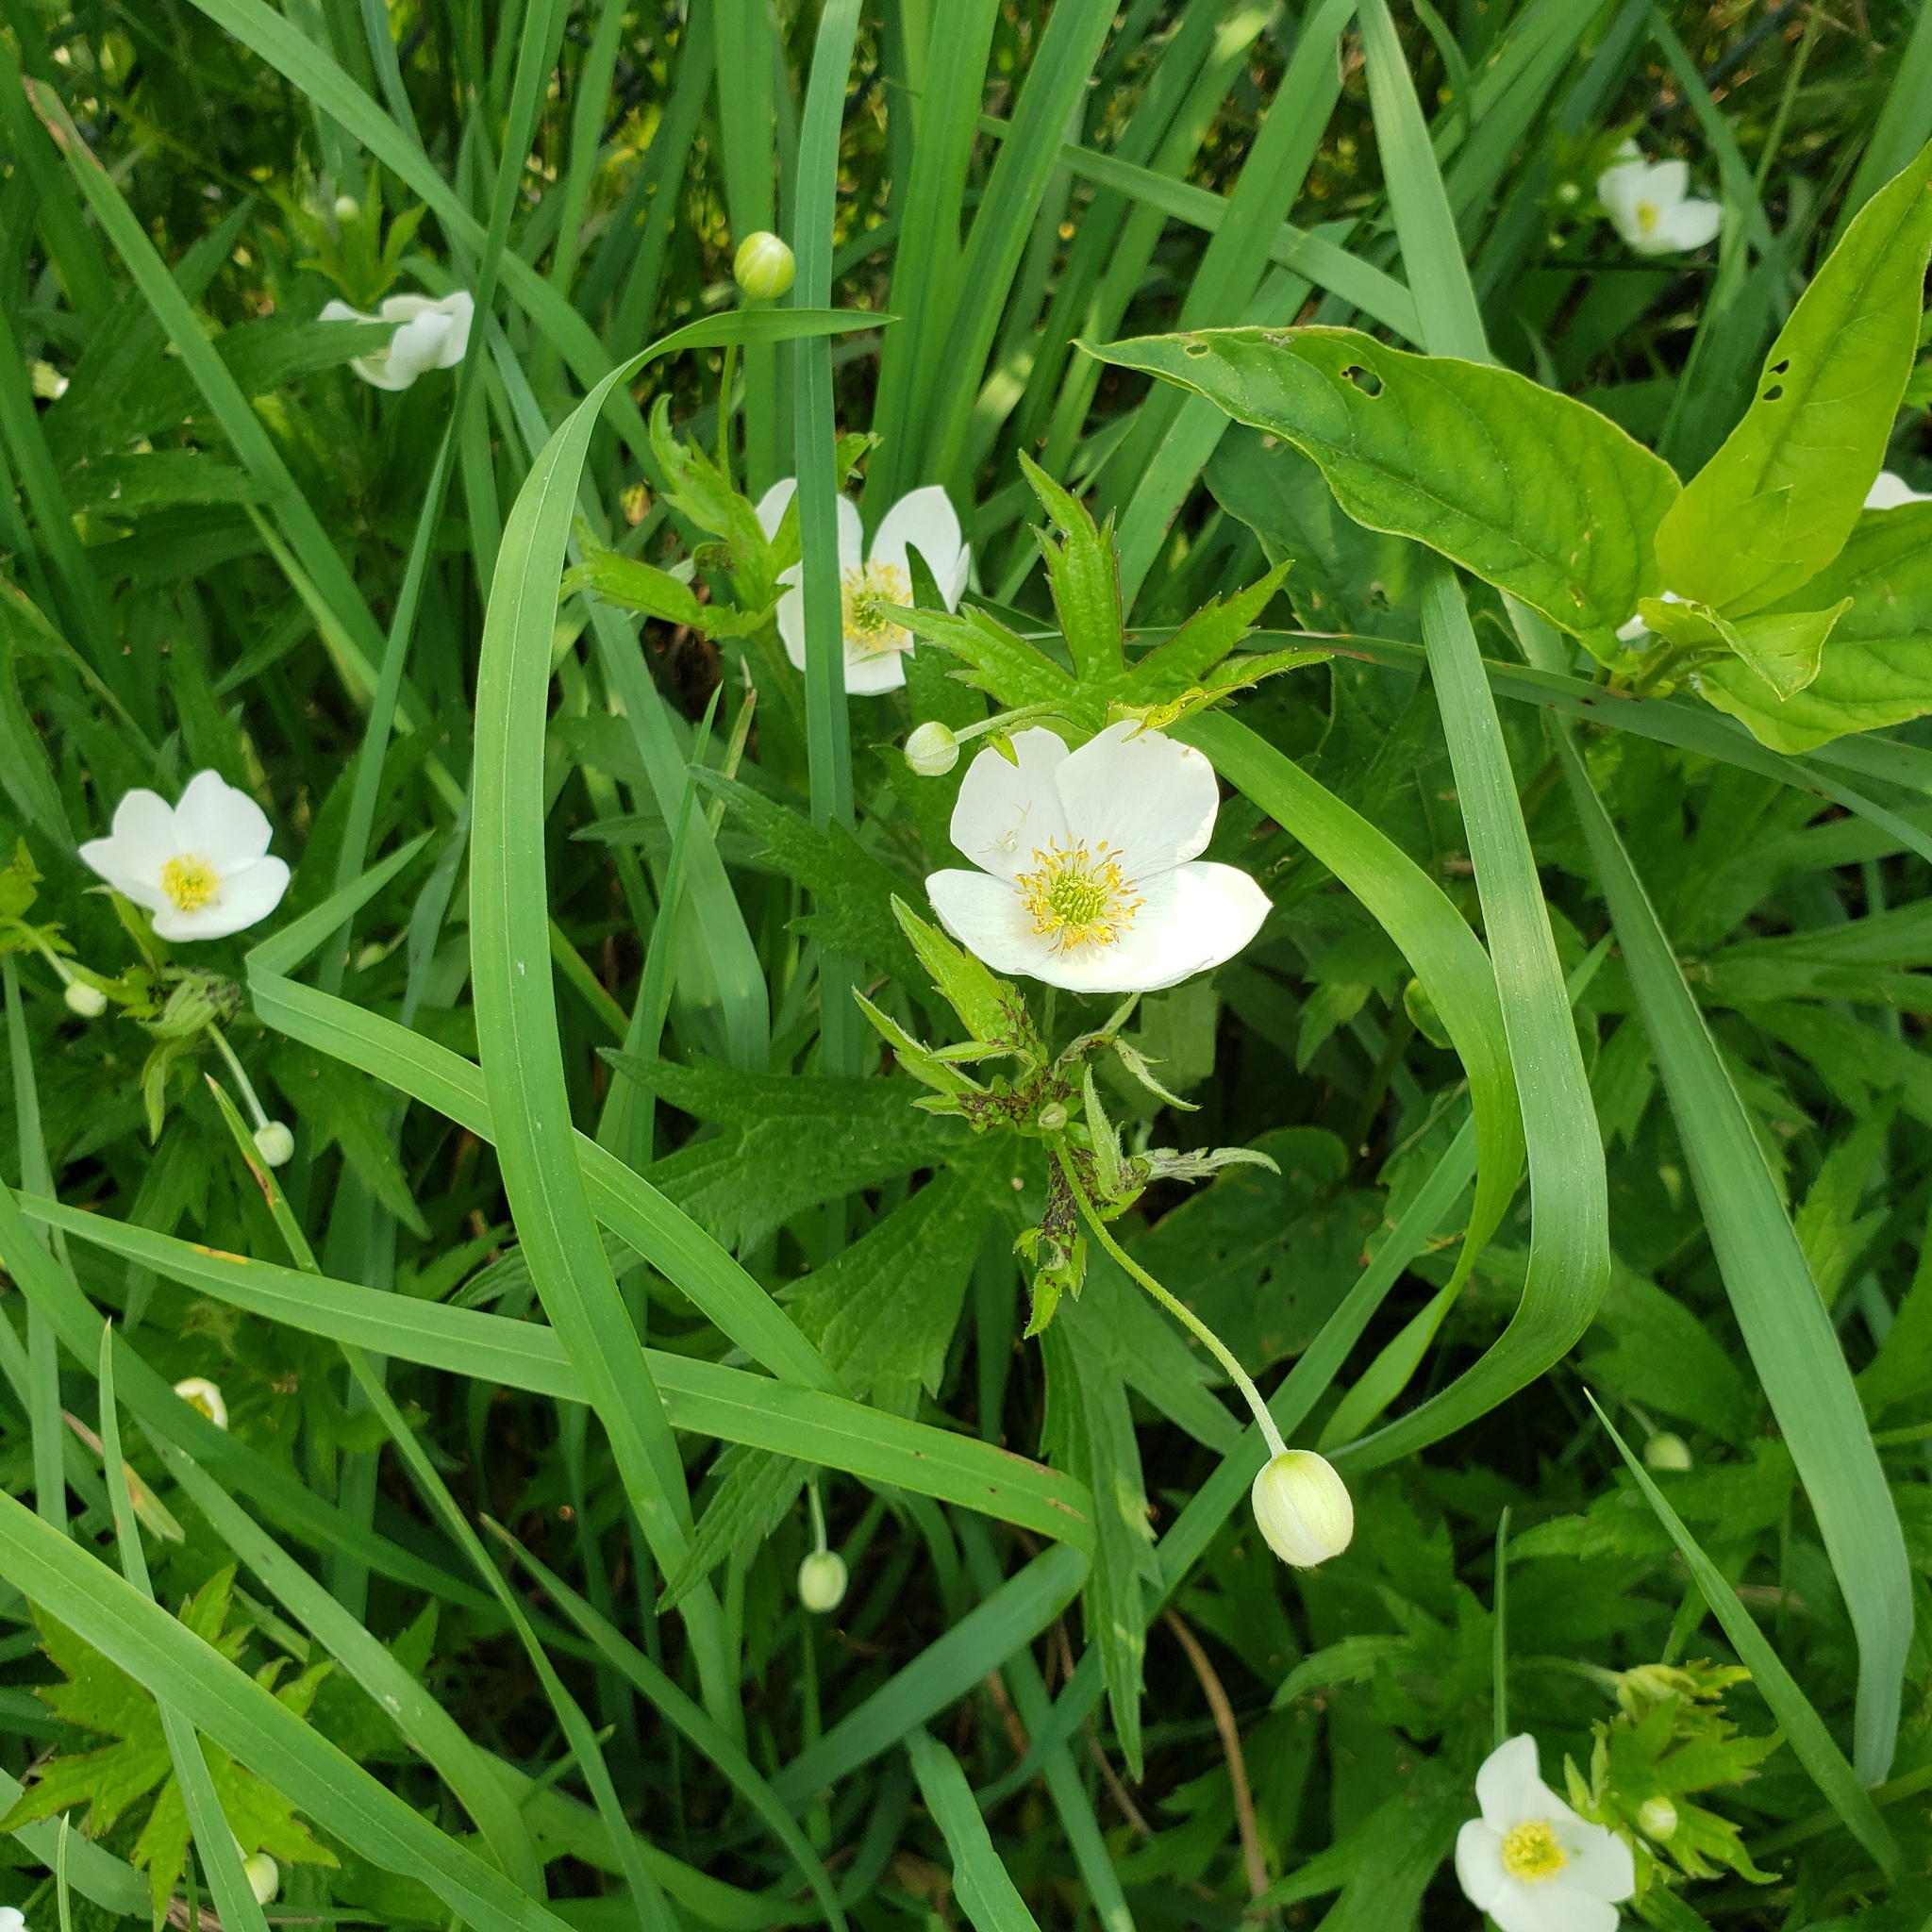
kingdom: Plantae
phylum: Tracheophyta
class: Magnoliopsida
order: Ranunculales
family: Ranunculaceae
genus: Anemonastrum
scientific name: Anemonastrum canadense
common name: Canada anemone
